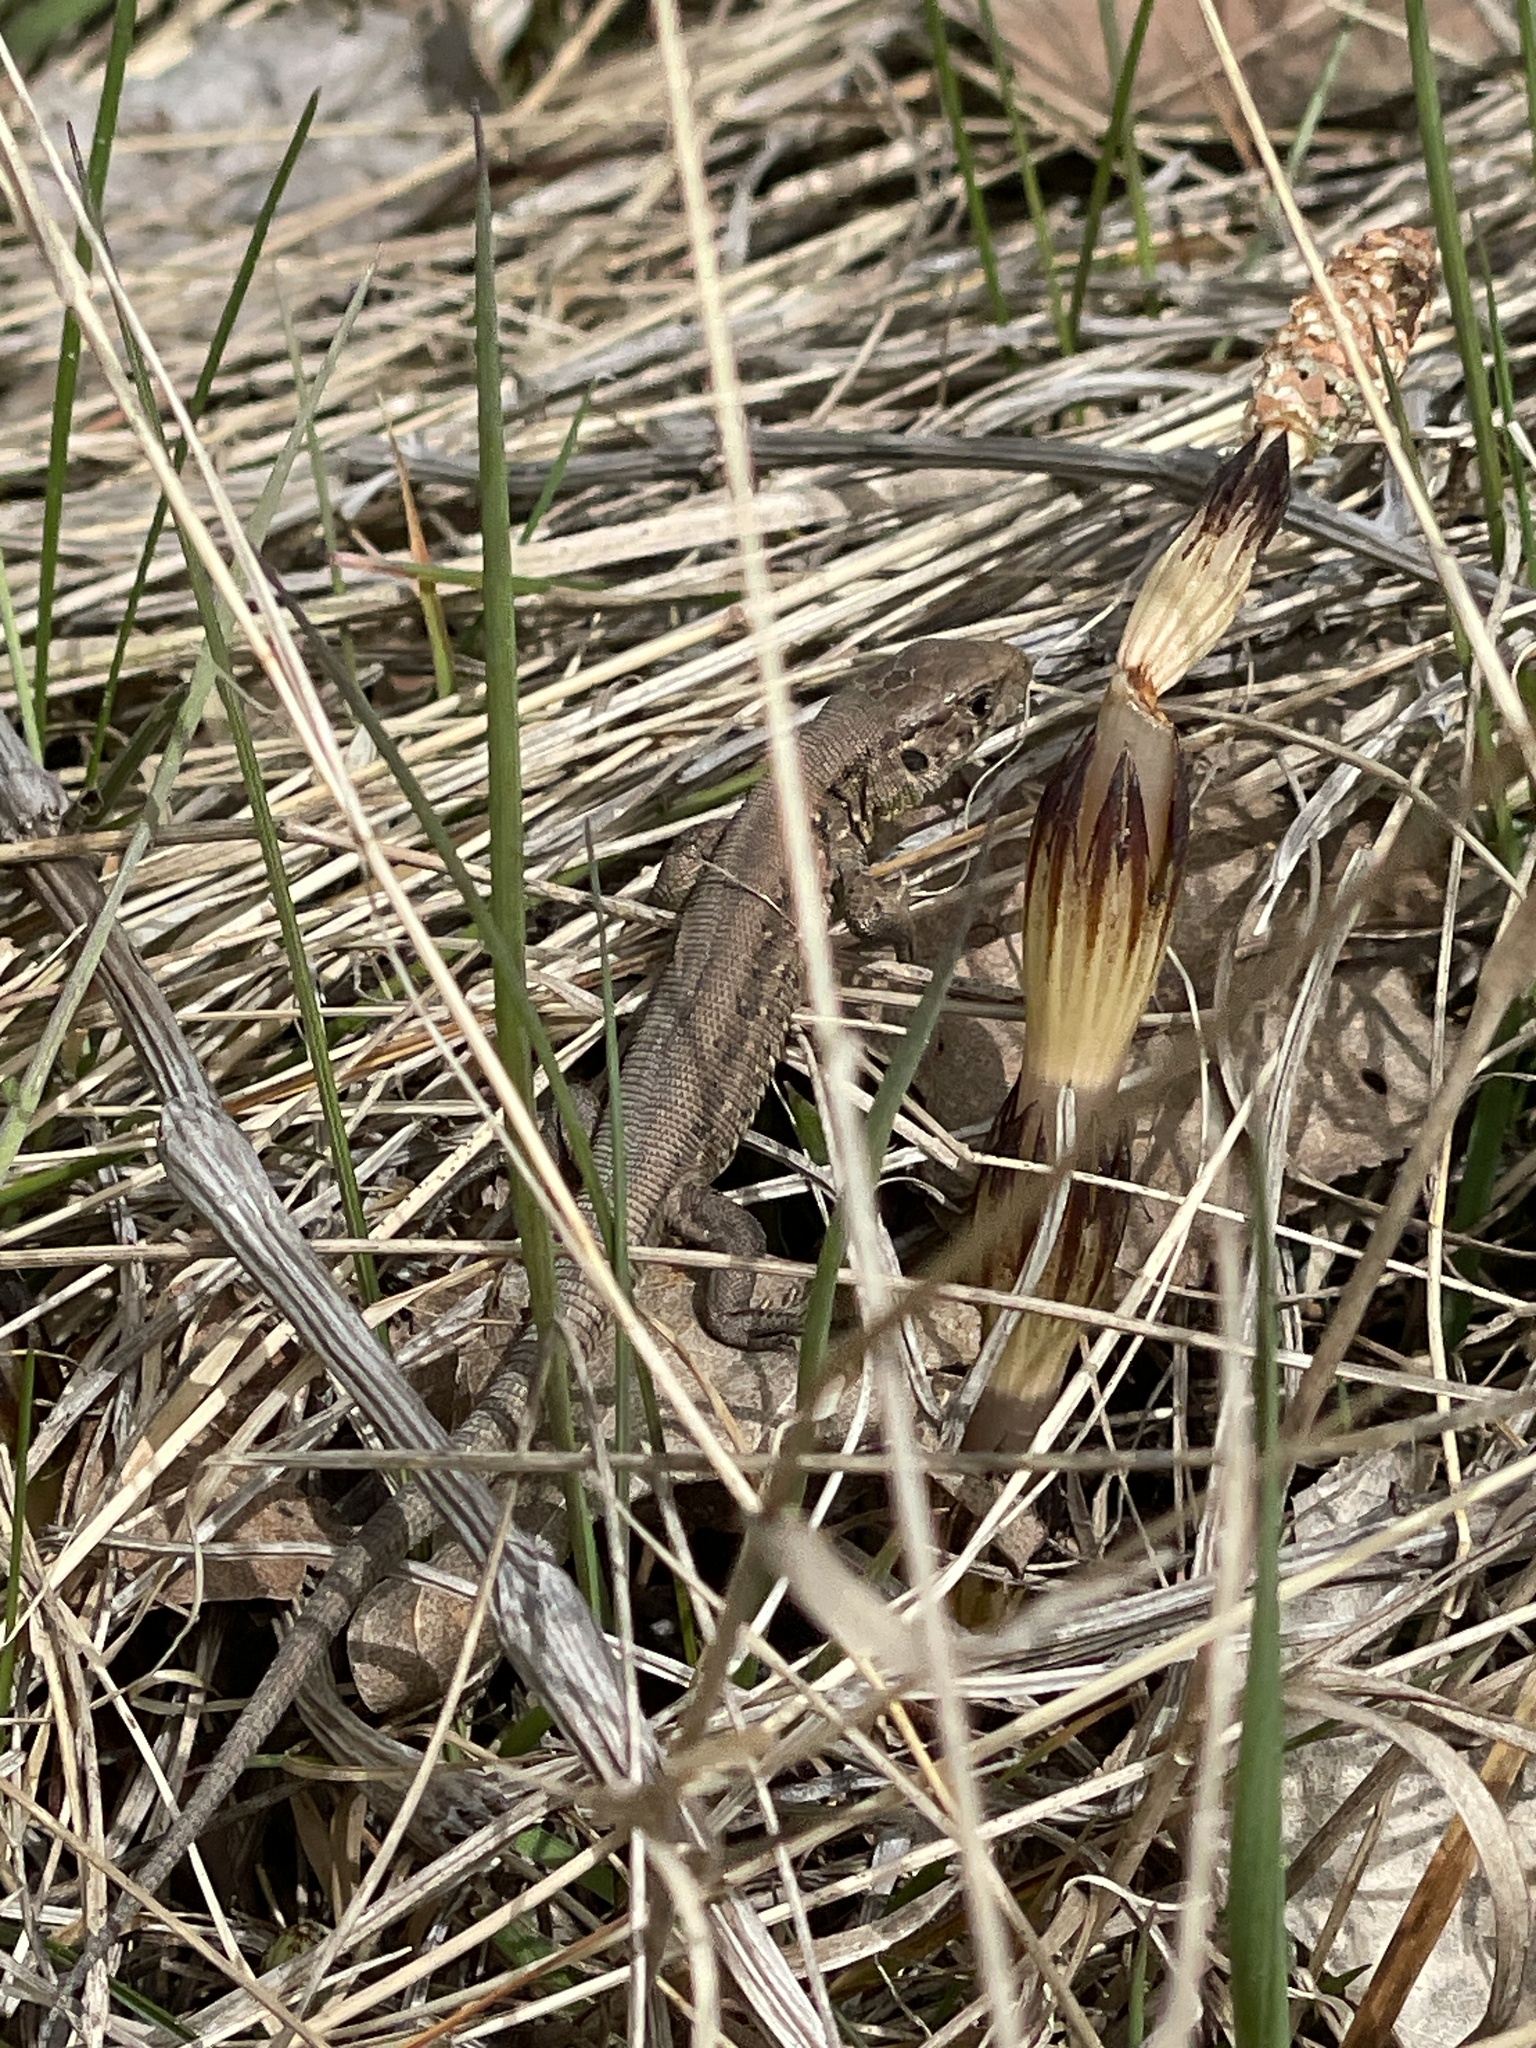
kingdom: Animalia
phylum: Chordata
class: Squamata
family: Lacertidae
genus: Lacerta
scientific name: Lacerta agilis
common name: Sand lizard
